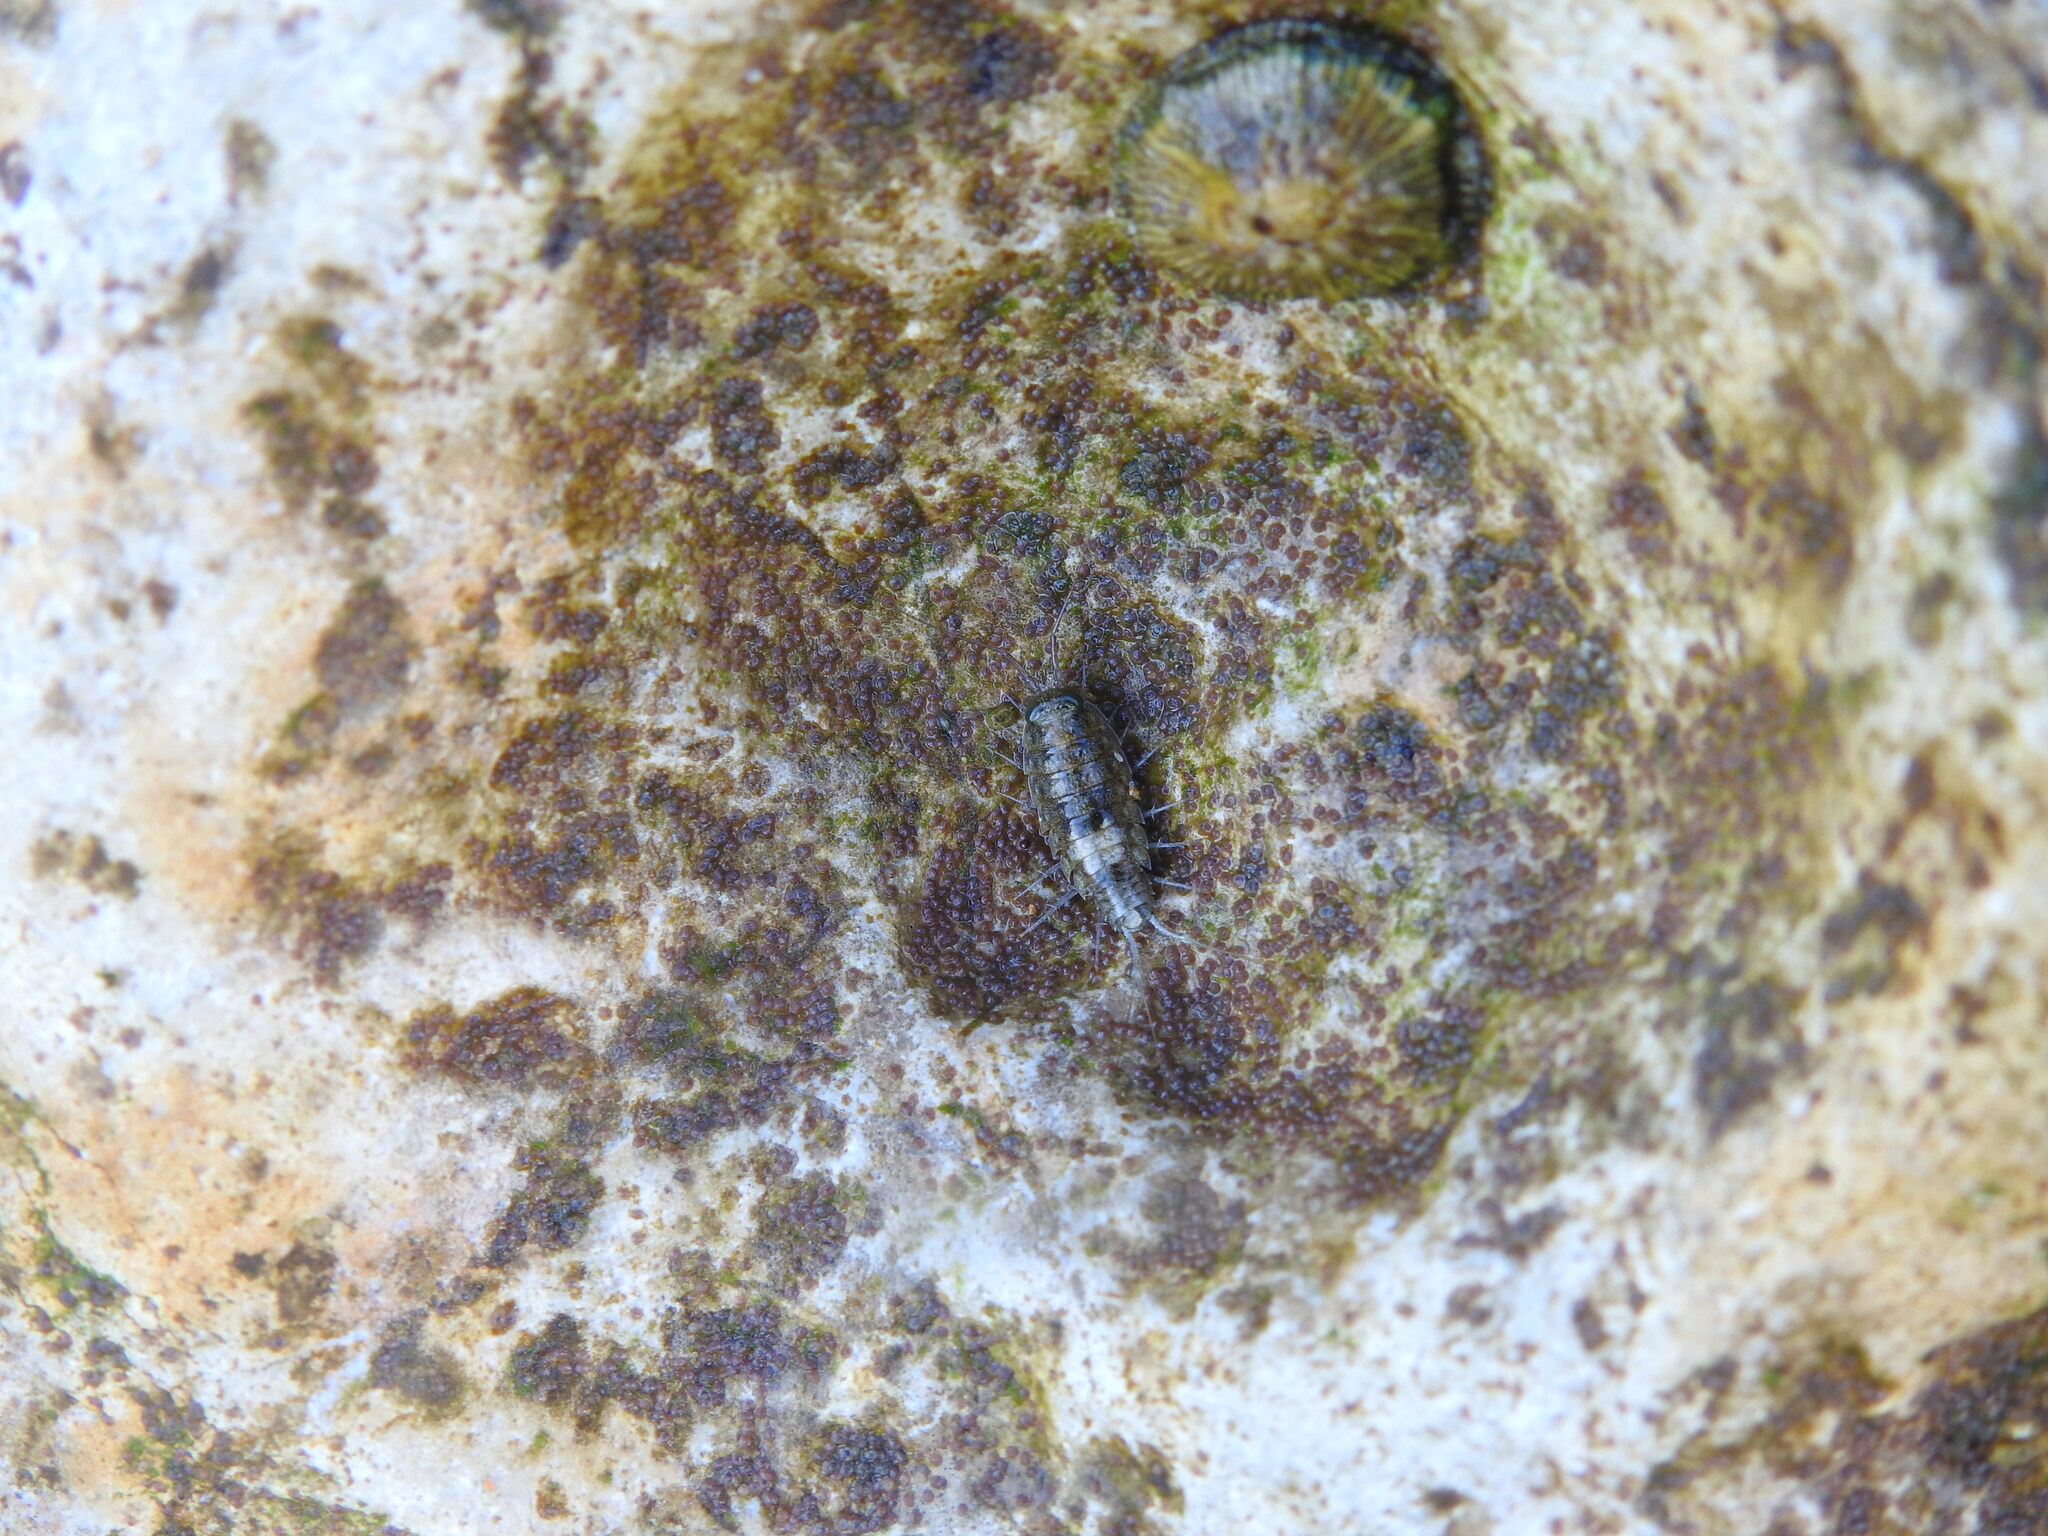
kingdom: Animalia
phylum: Arthropoda
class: Malacostraca
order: Isopoda
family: Ligiidae
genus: Ligia
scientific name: Ligia italica
